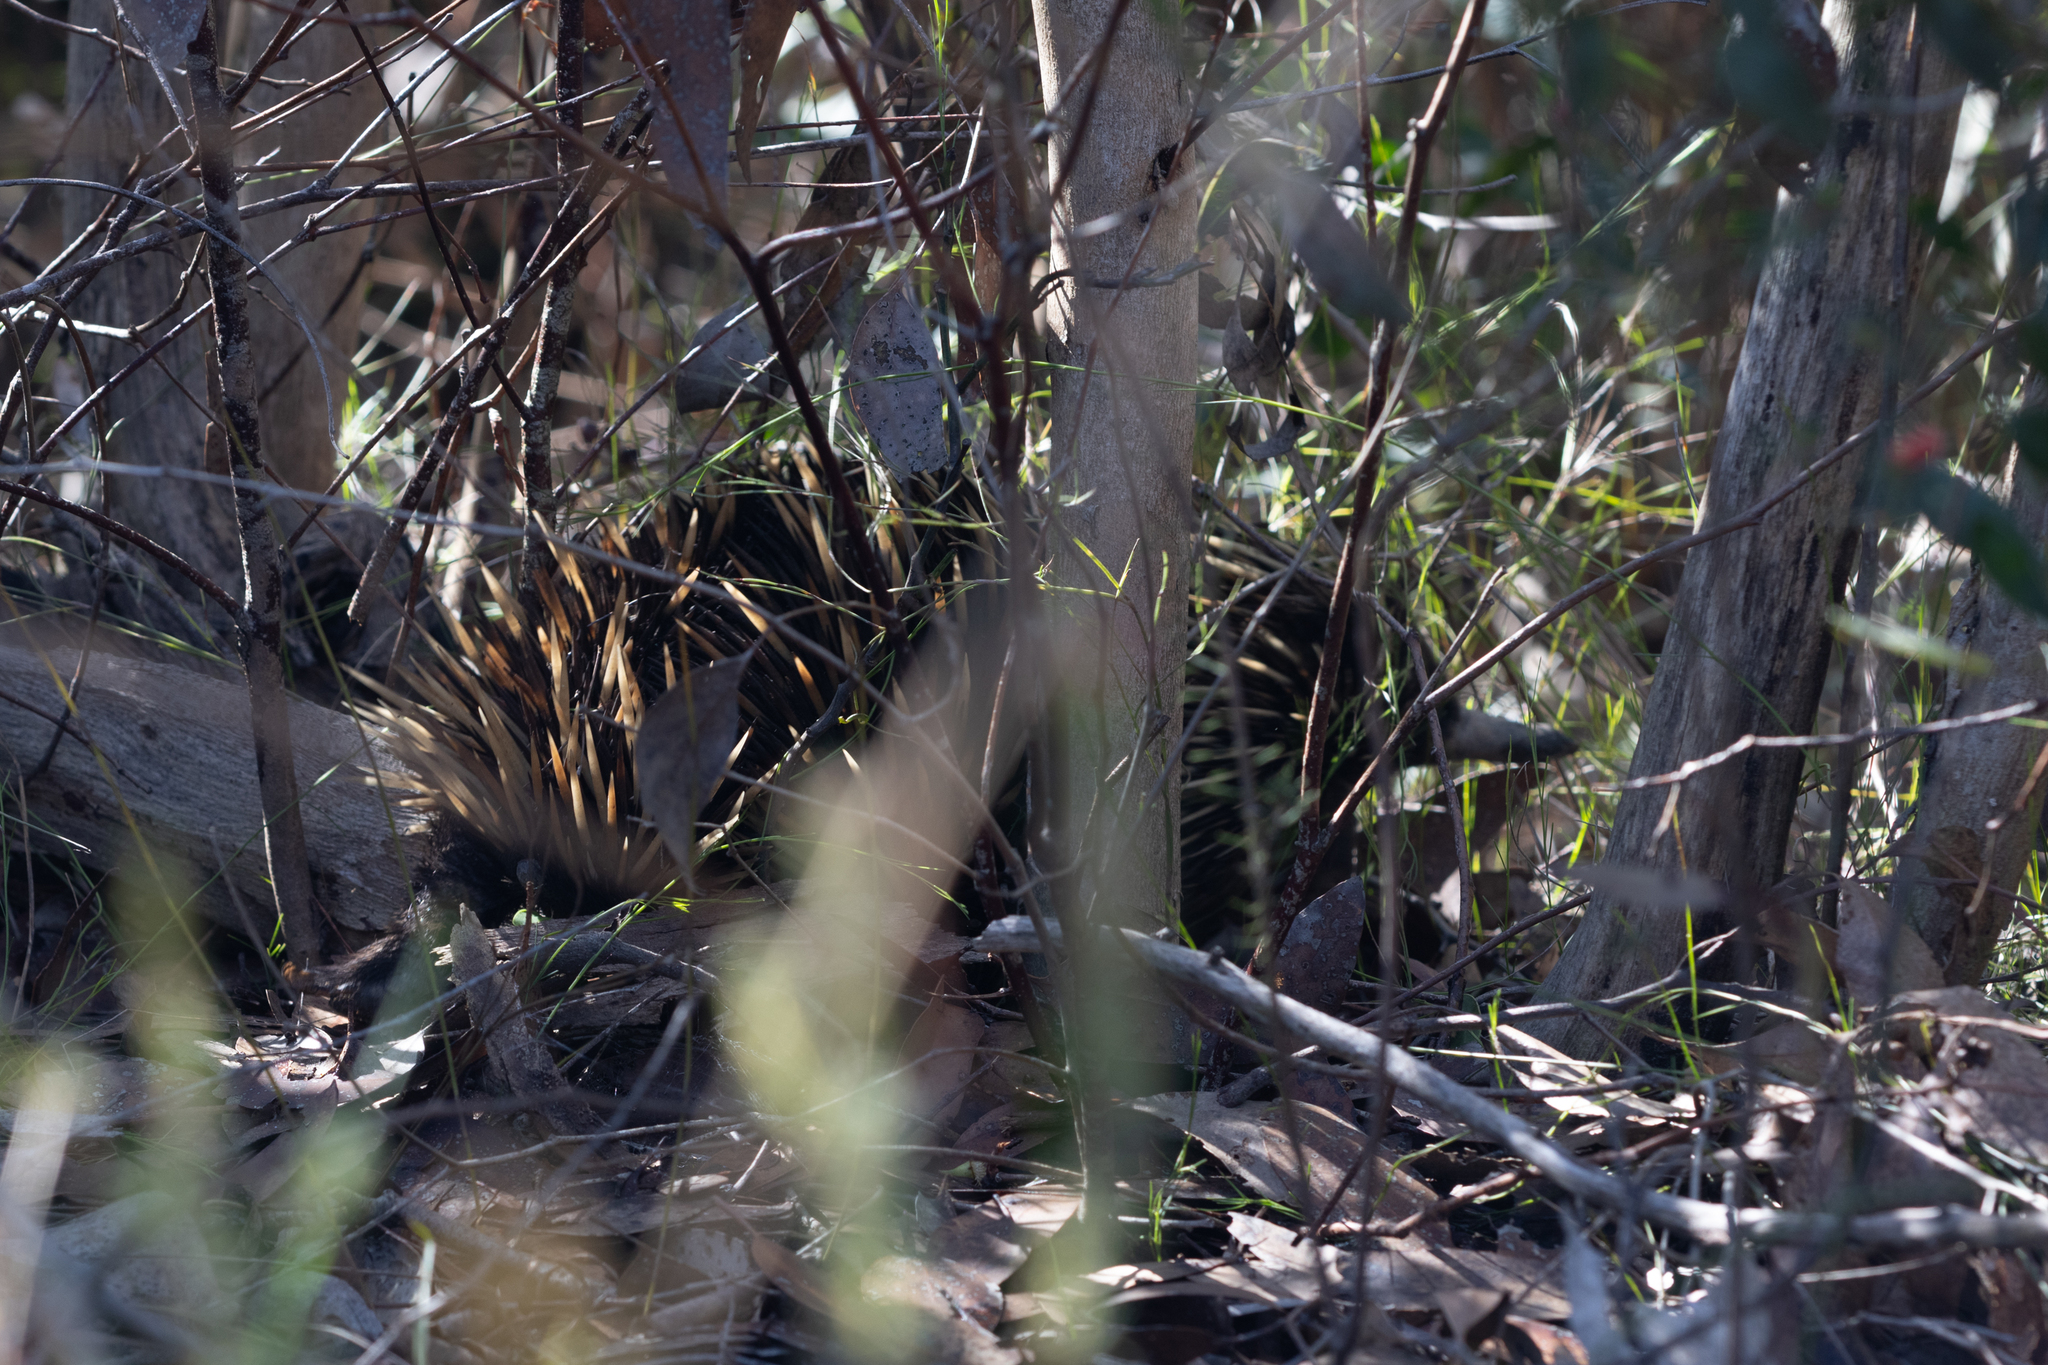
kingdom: Animalia
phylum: Chordata
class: Mammalia
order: Monotremata
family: Tachyglossidae
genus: Tachyglossus
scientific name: Tachyglossus aculeatus
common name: Short-beaked echidna
